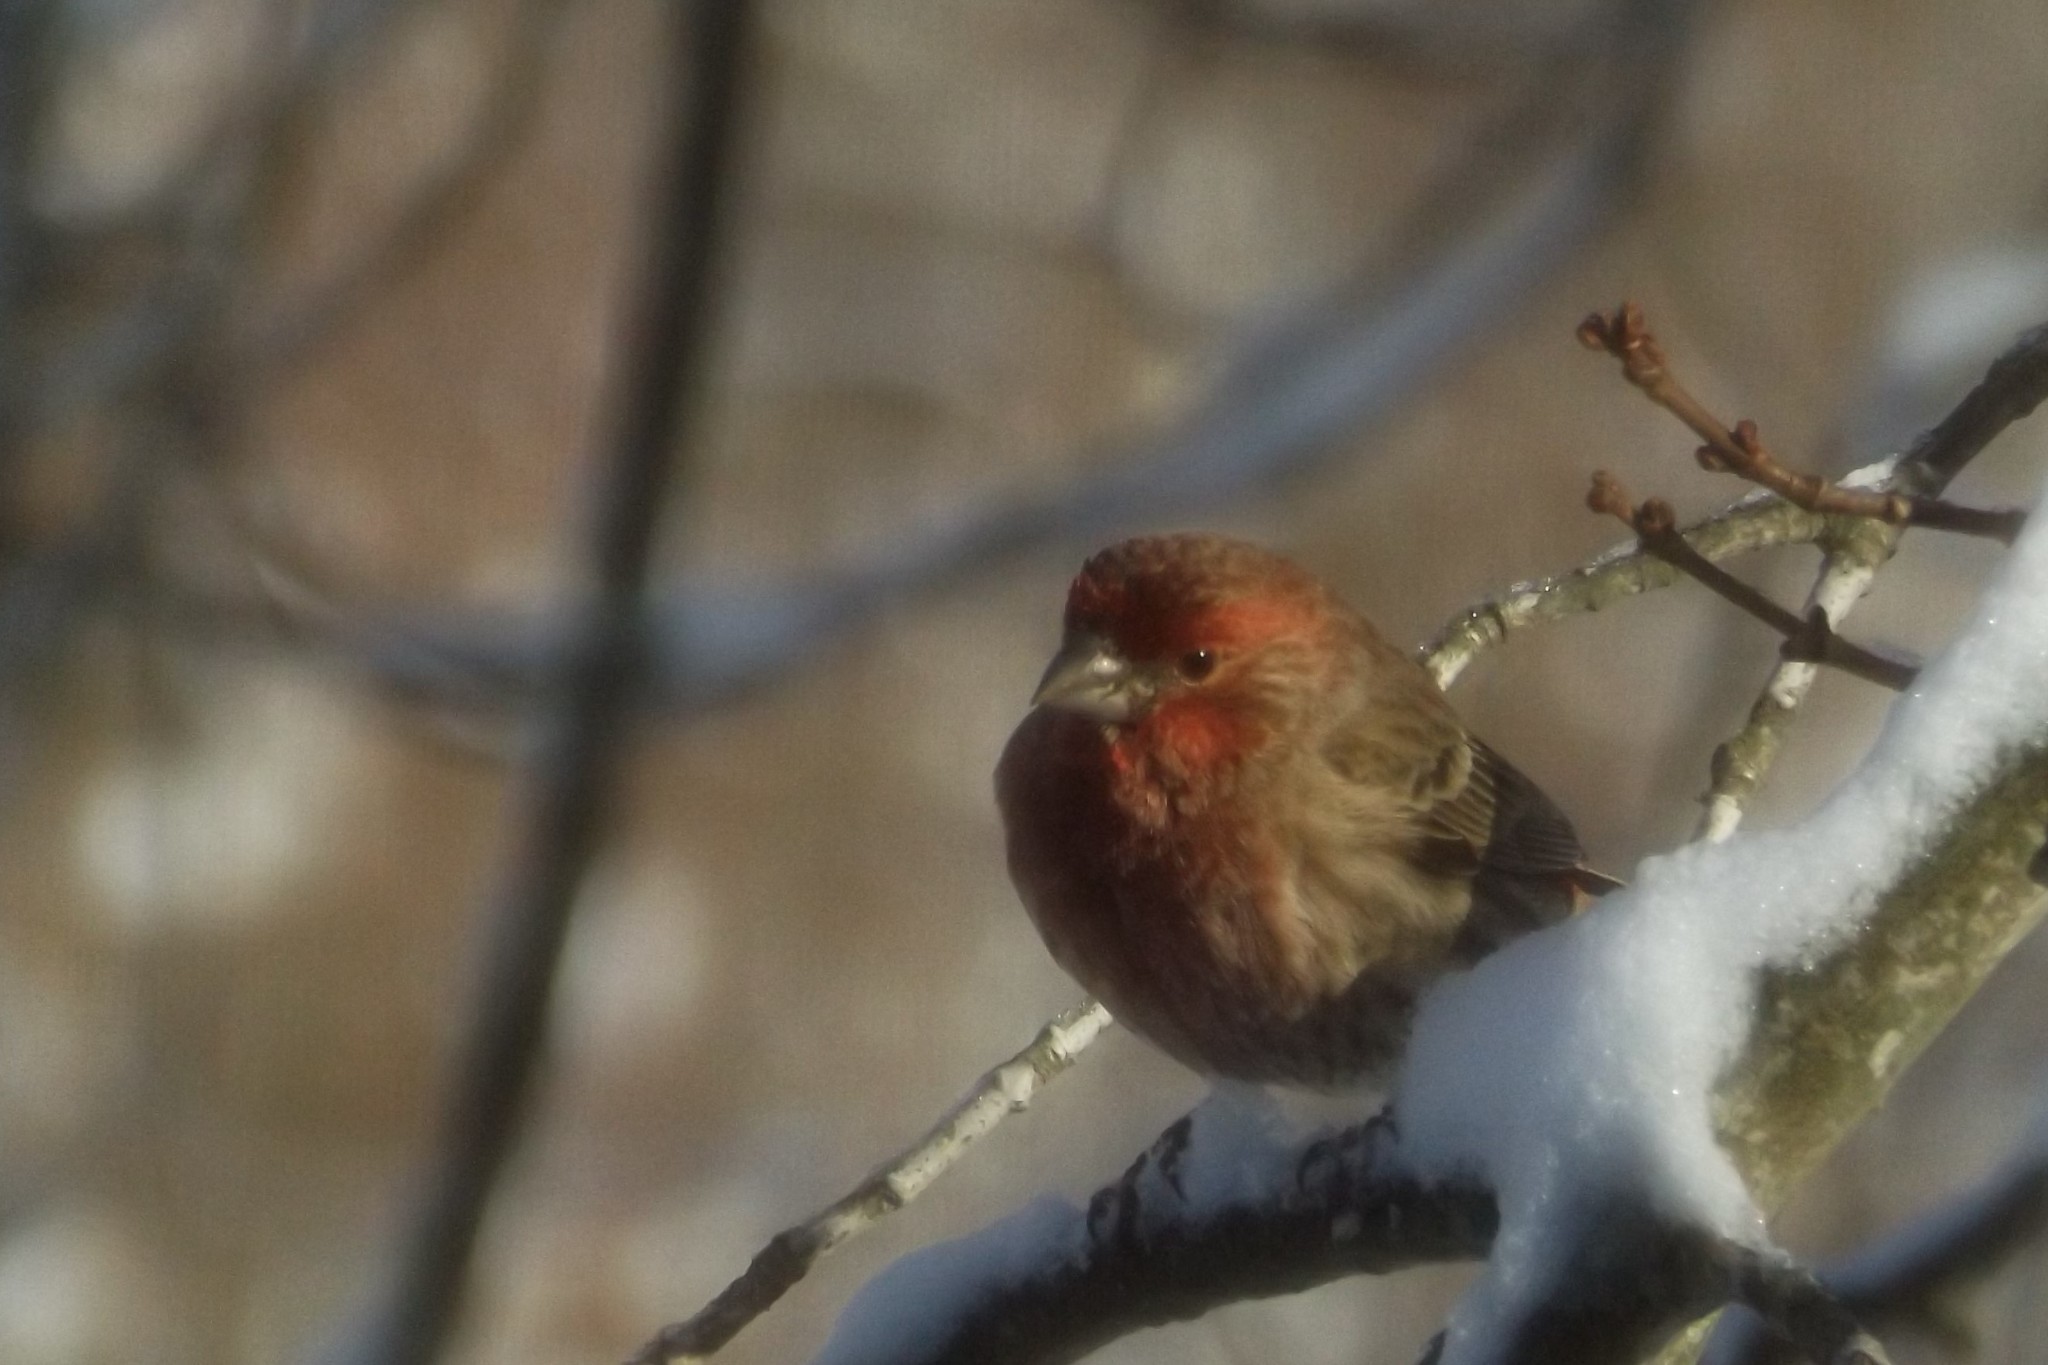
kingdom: Animalia
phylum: Chordata
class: Aves
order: Passeriformes
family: Fringillidae
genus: Haemorhous
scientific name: Haemorhous mexicanus
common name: House finch
